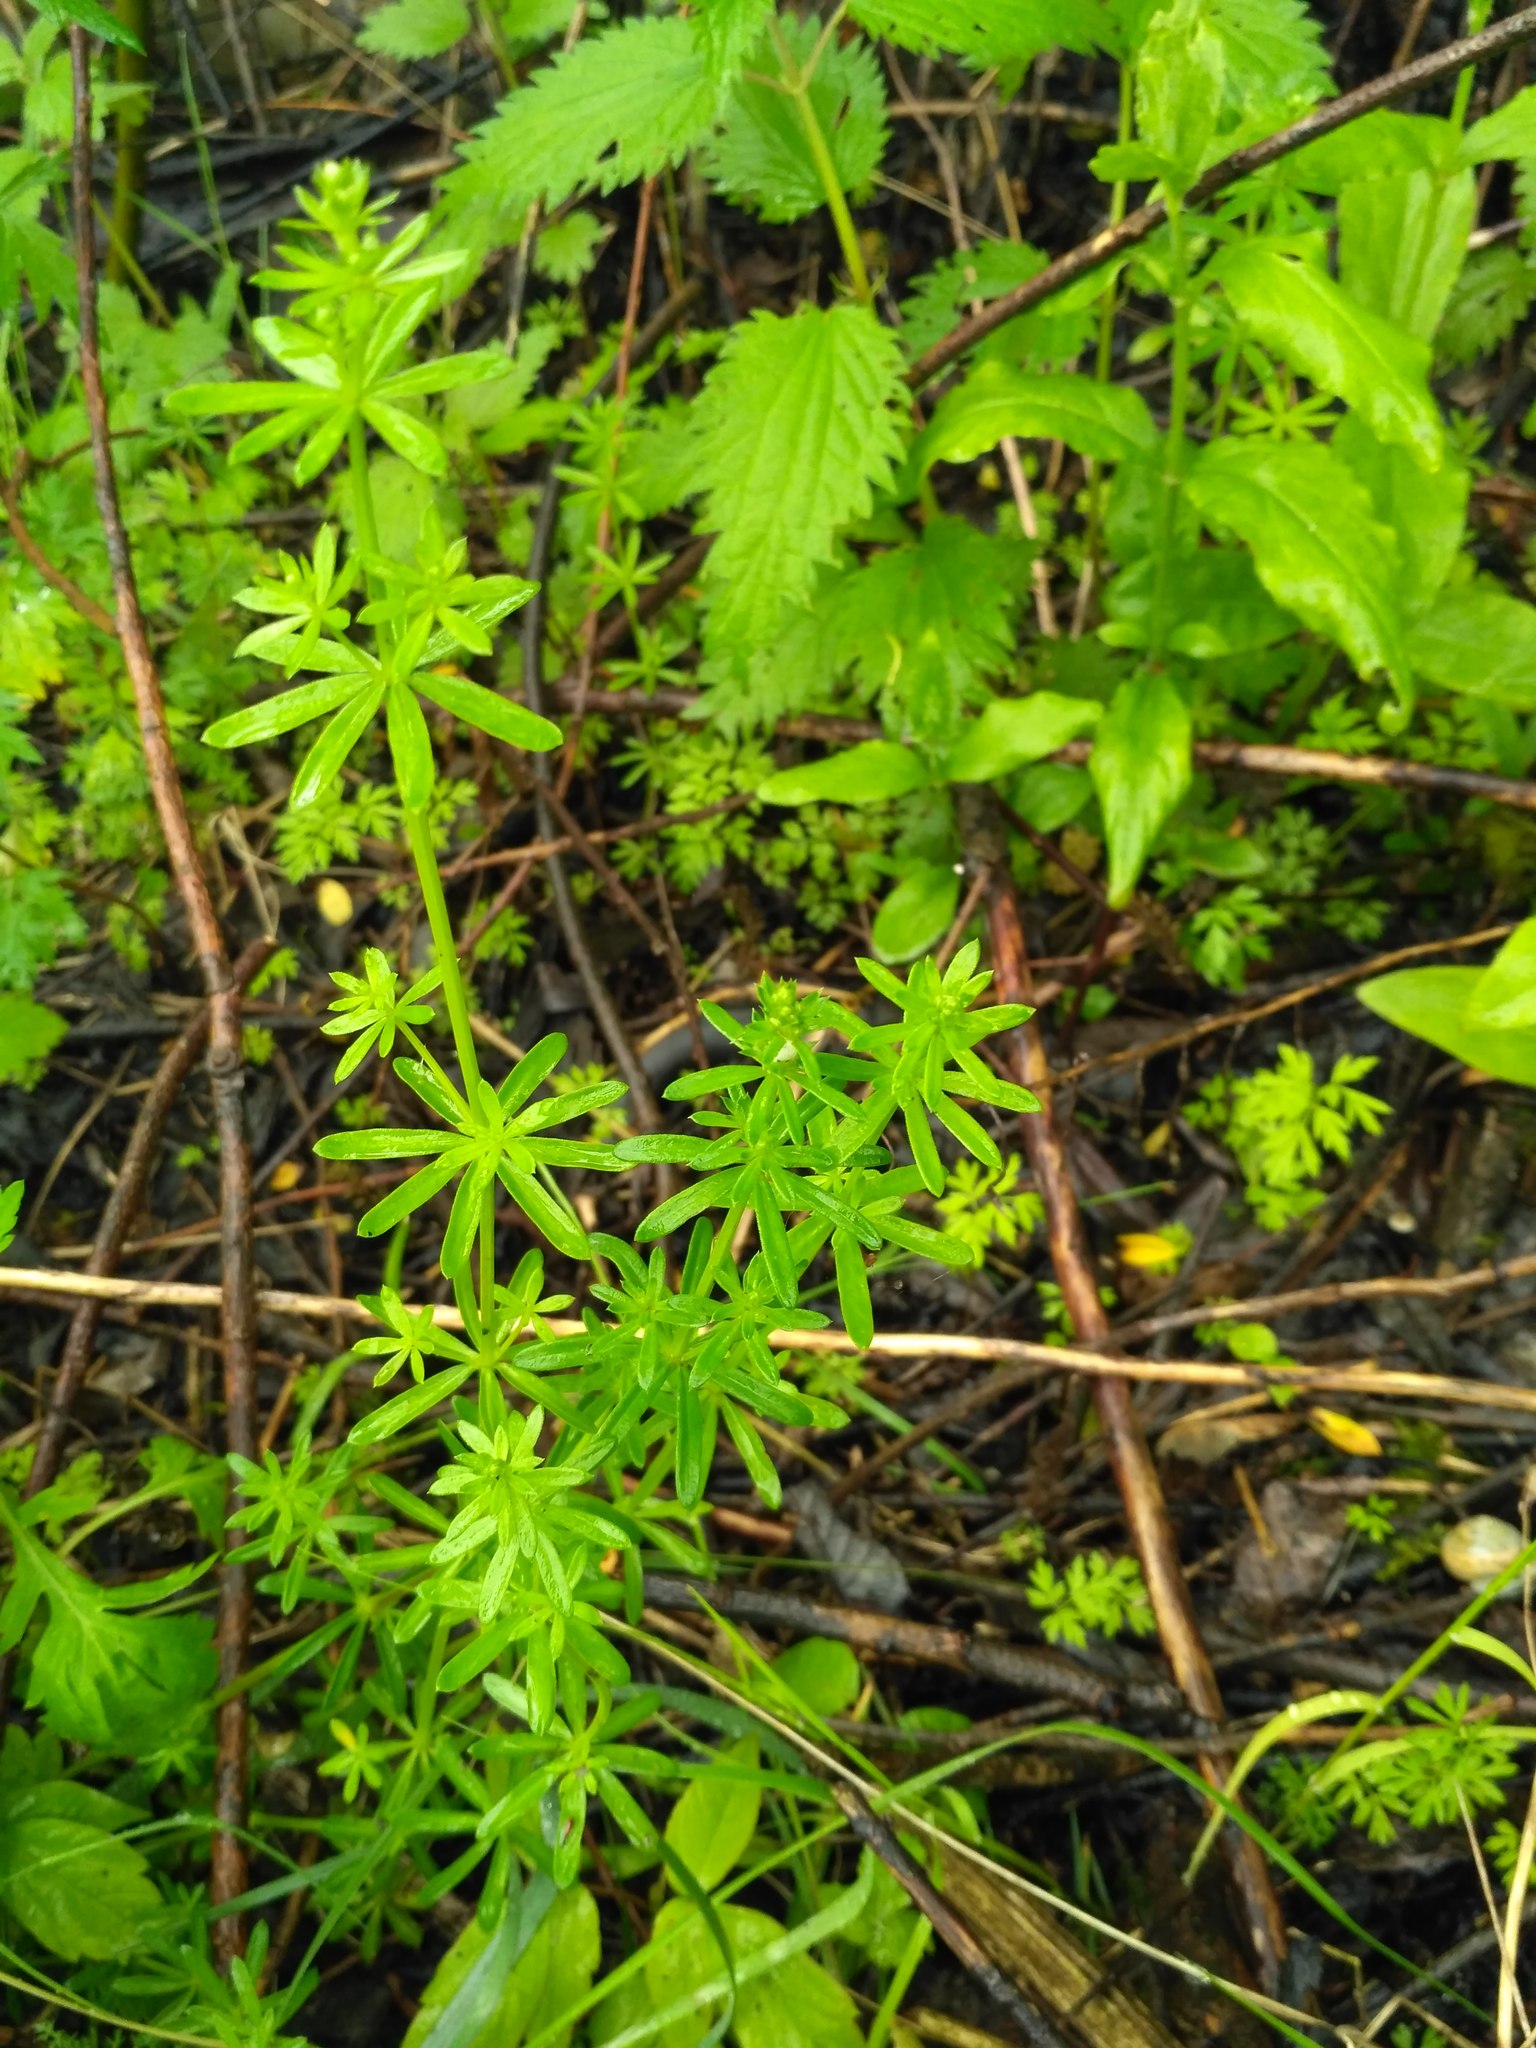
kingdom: Plantae
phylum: Tracheophyta
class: Magnoliopsida
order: Gentianales
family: Rubiaceae
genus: Galium
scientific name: Galium mollugo
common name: Hedge bedstraw
